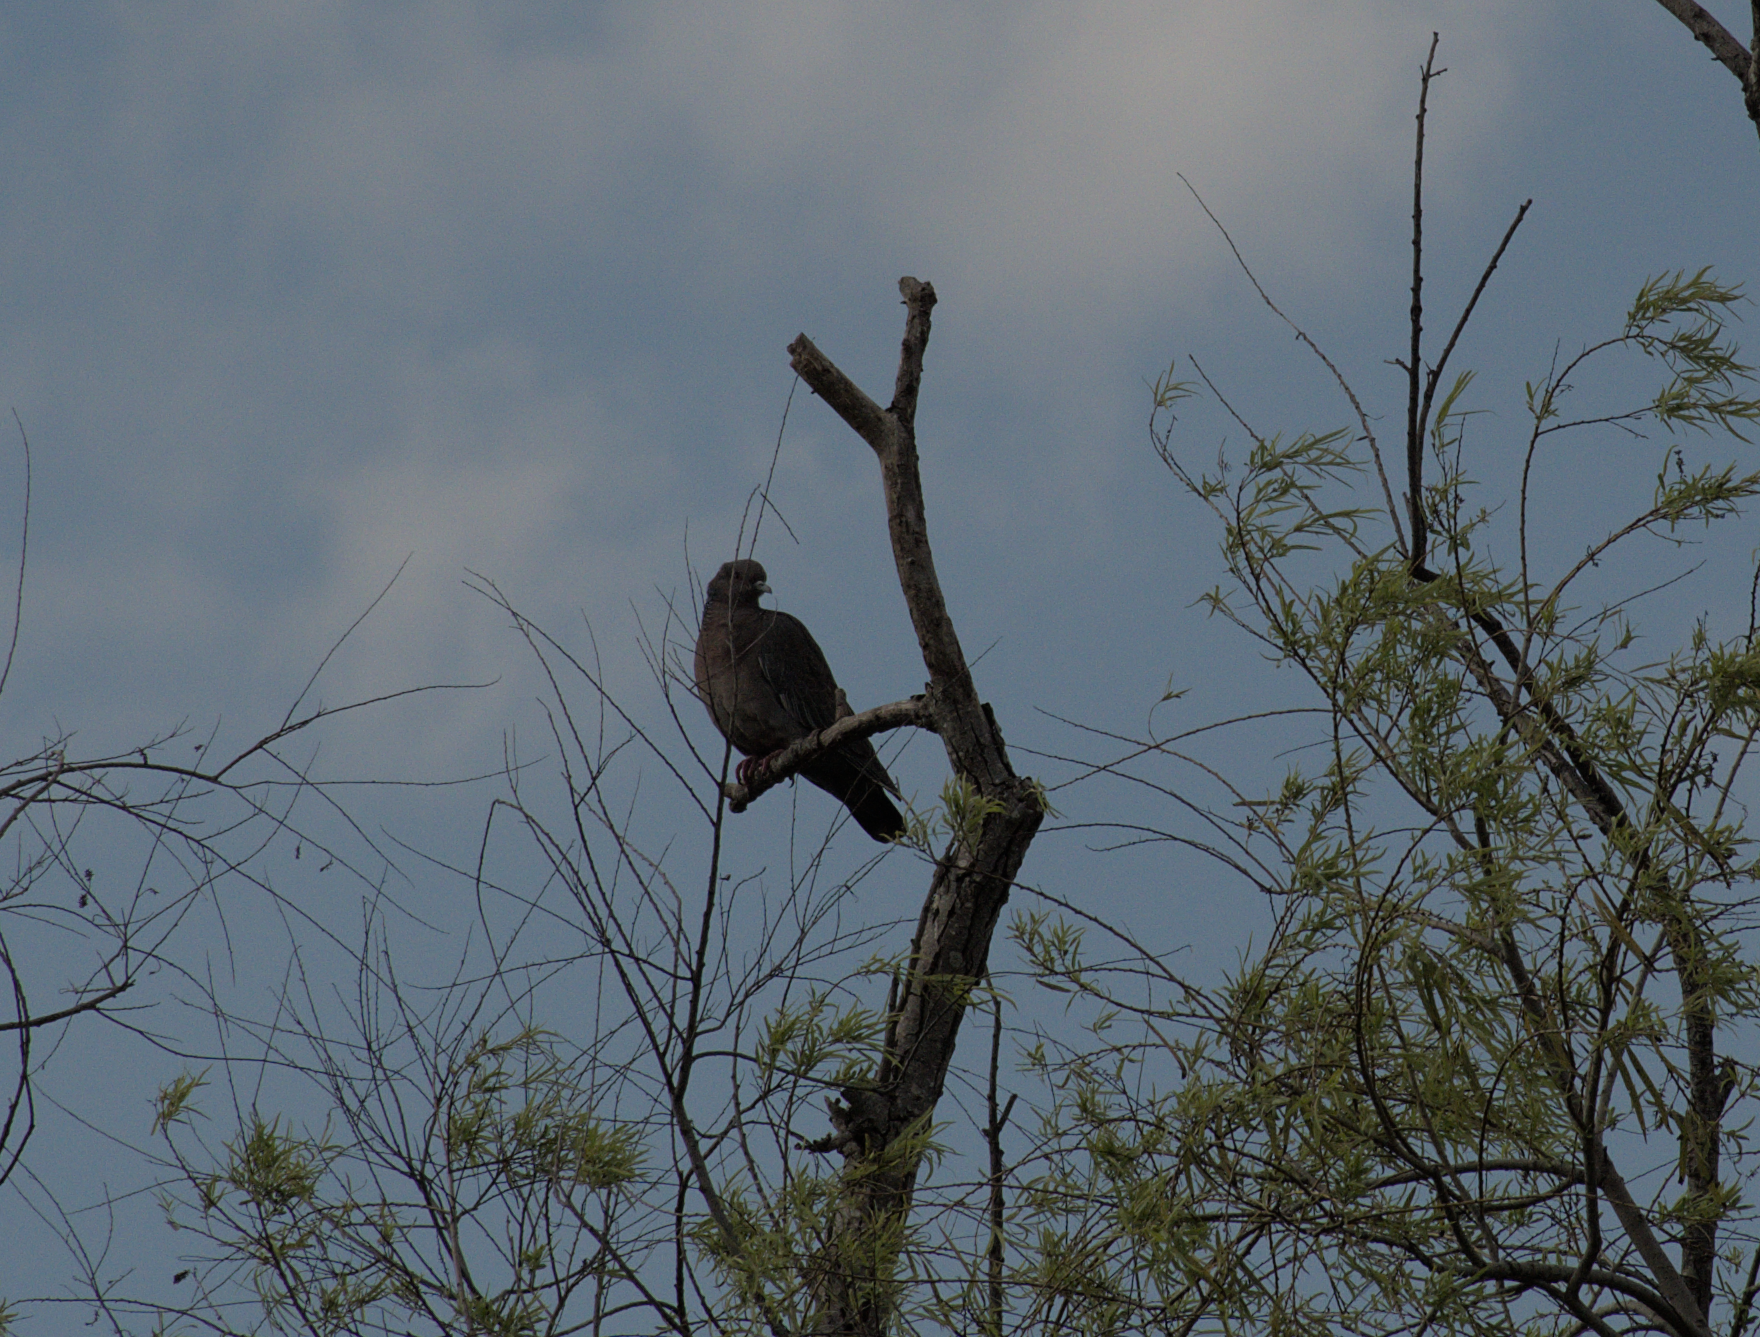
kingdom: Animalia
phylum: Chordata
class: Aves
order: Columbiformes
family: Columbidae
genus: Patagioenas
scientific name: Patagioenas picazuro
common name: Picazuro pigeon
